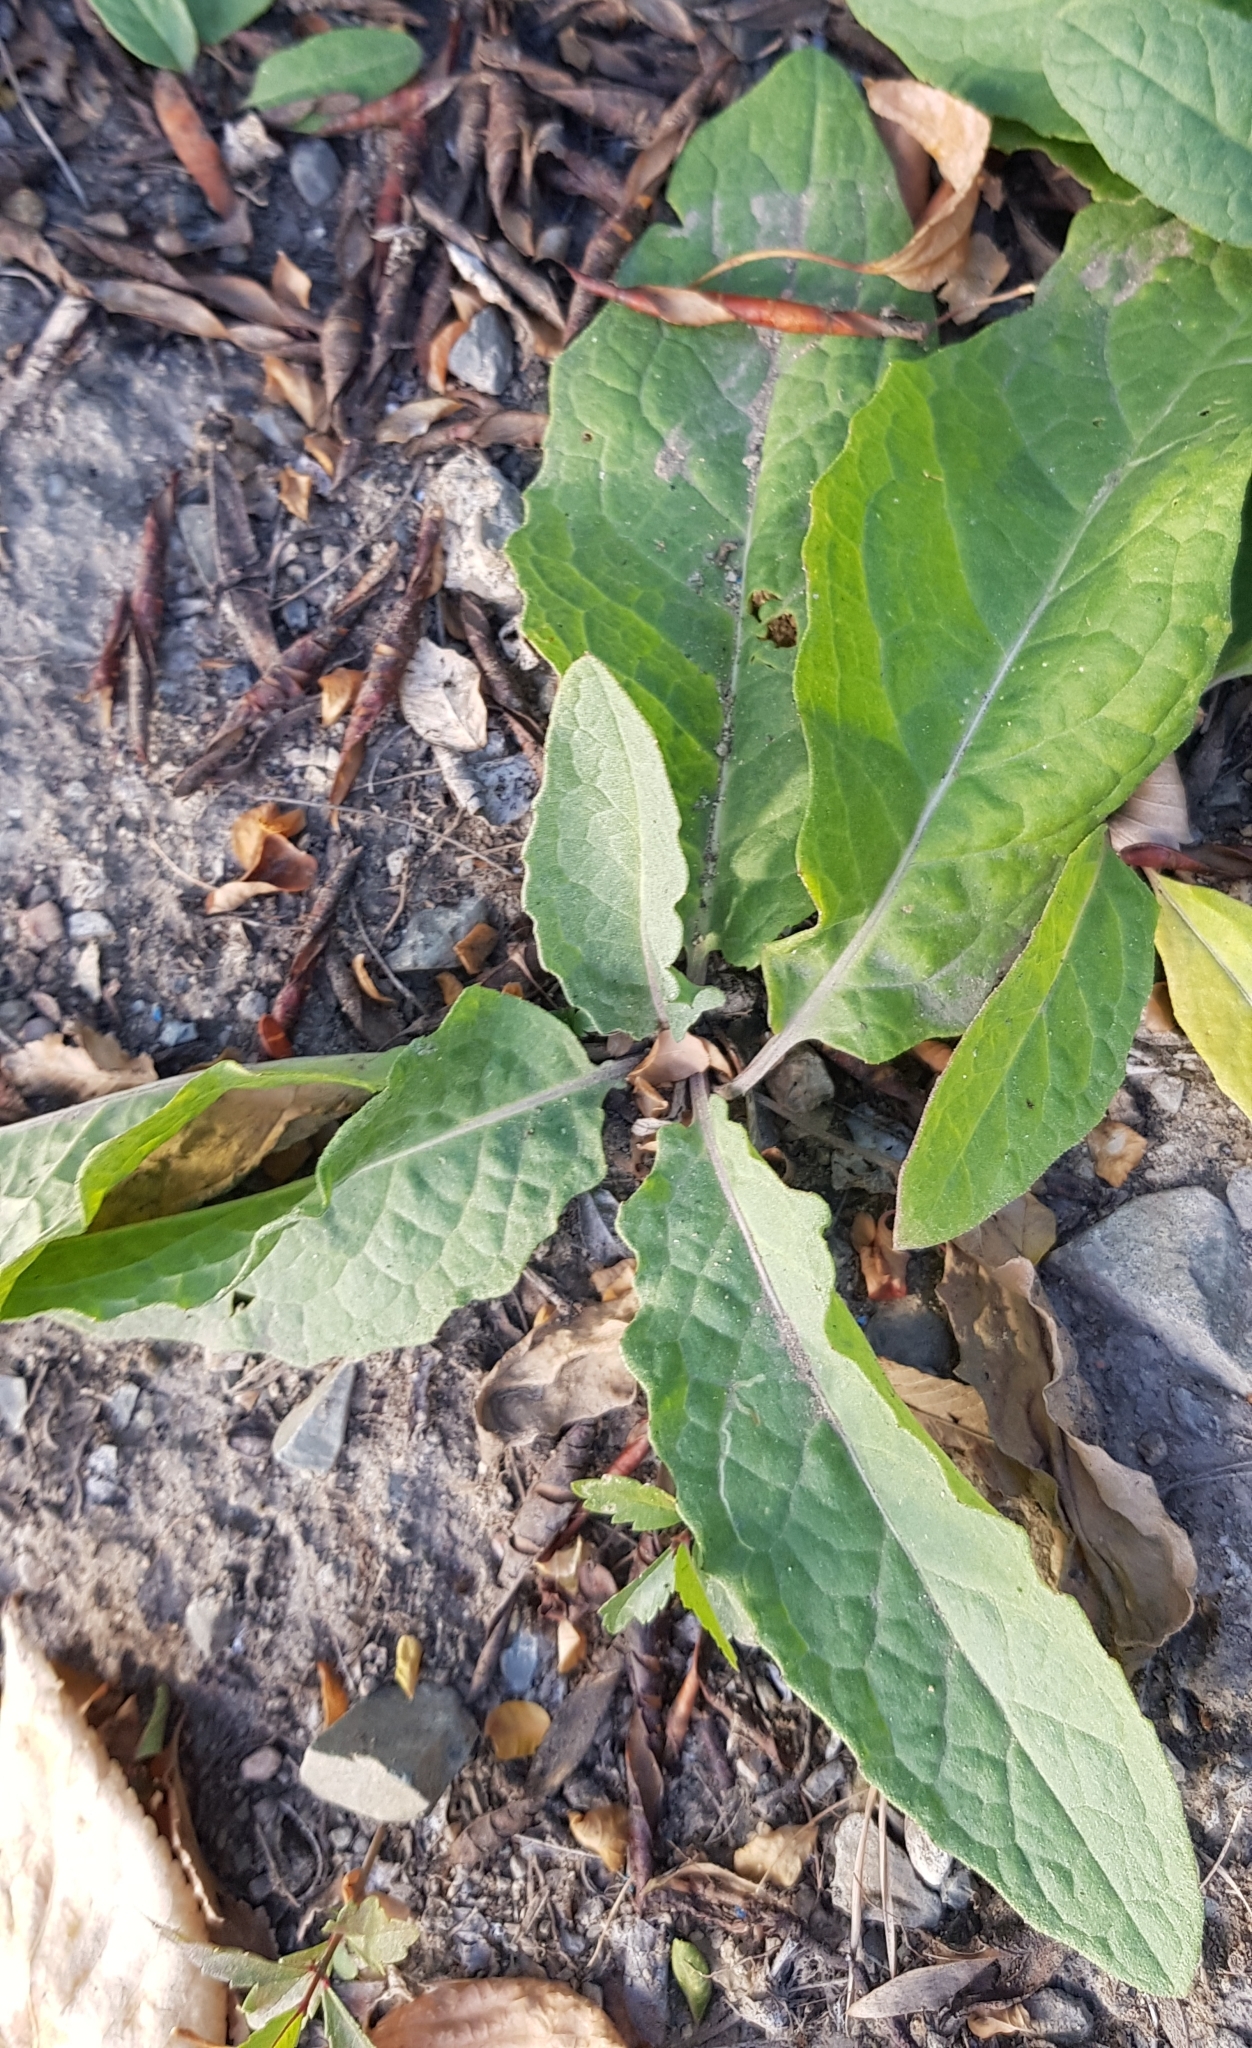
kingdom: Plantae
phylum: Tracheophyta
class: Magnoliopsida
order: Asterales
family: Asteraceae
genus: Saussurea
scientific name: Saussurea amara
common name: Alberta sawwort
